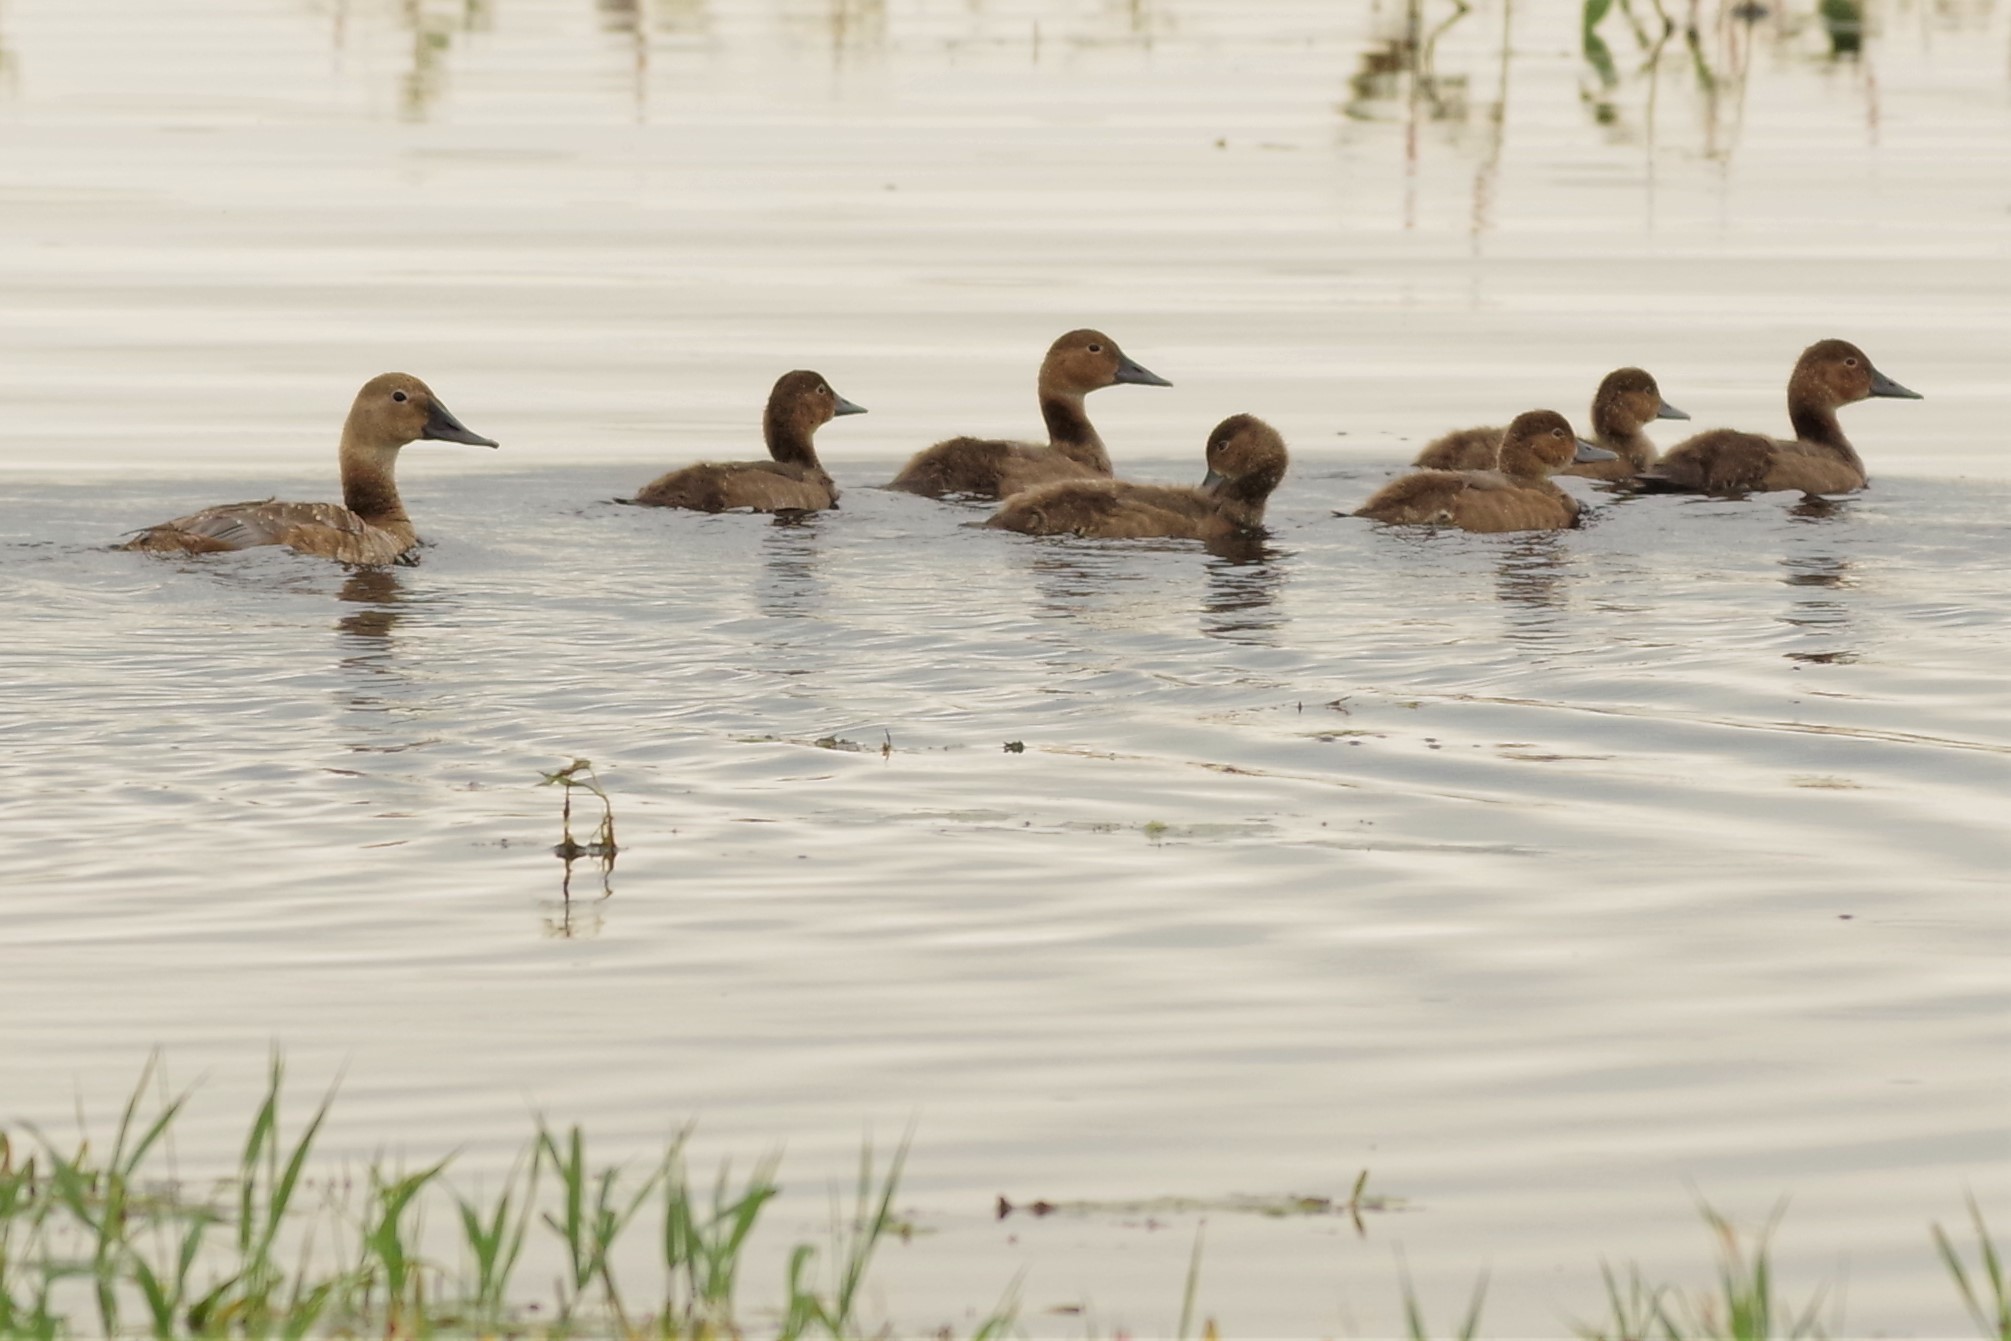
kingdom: Animalia
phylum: Chordata
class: Aves
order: Anseriformes
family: Anatidae
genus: Aythya
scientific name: Aythya valisineria
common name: Canvasback
